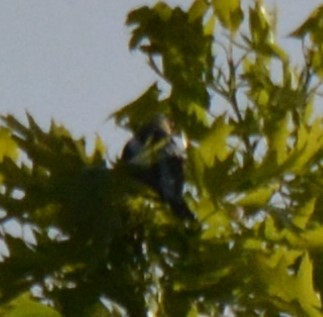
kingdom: Animalia
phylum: Chordata
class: Aves
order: Passeriformes
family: Icteridae
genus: Dolichonyx
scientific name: Dolichonyx oryzivorus
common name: Bobolink
